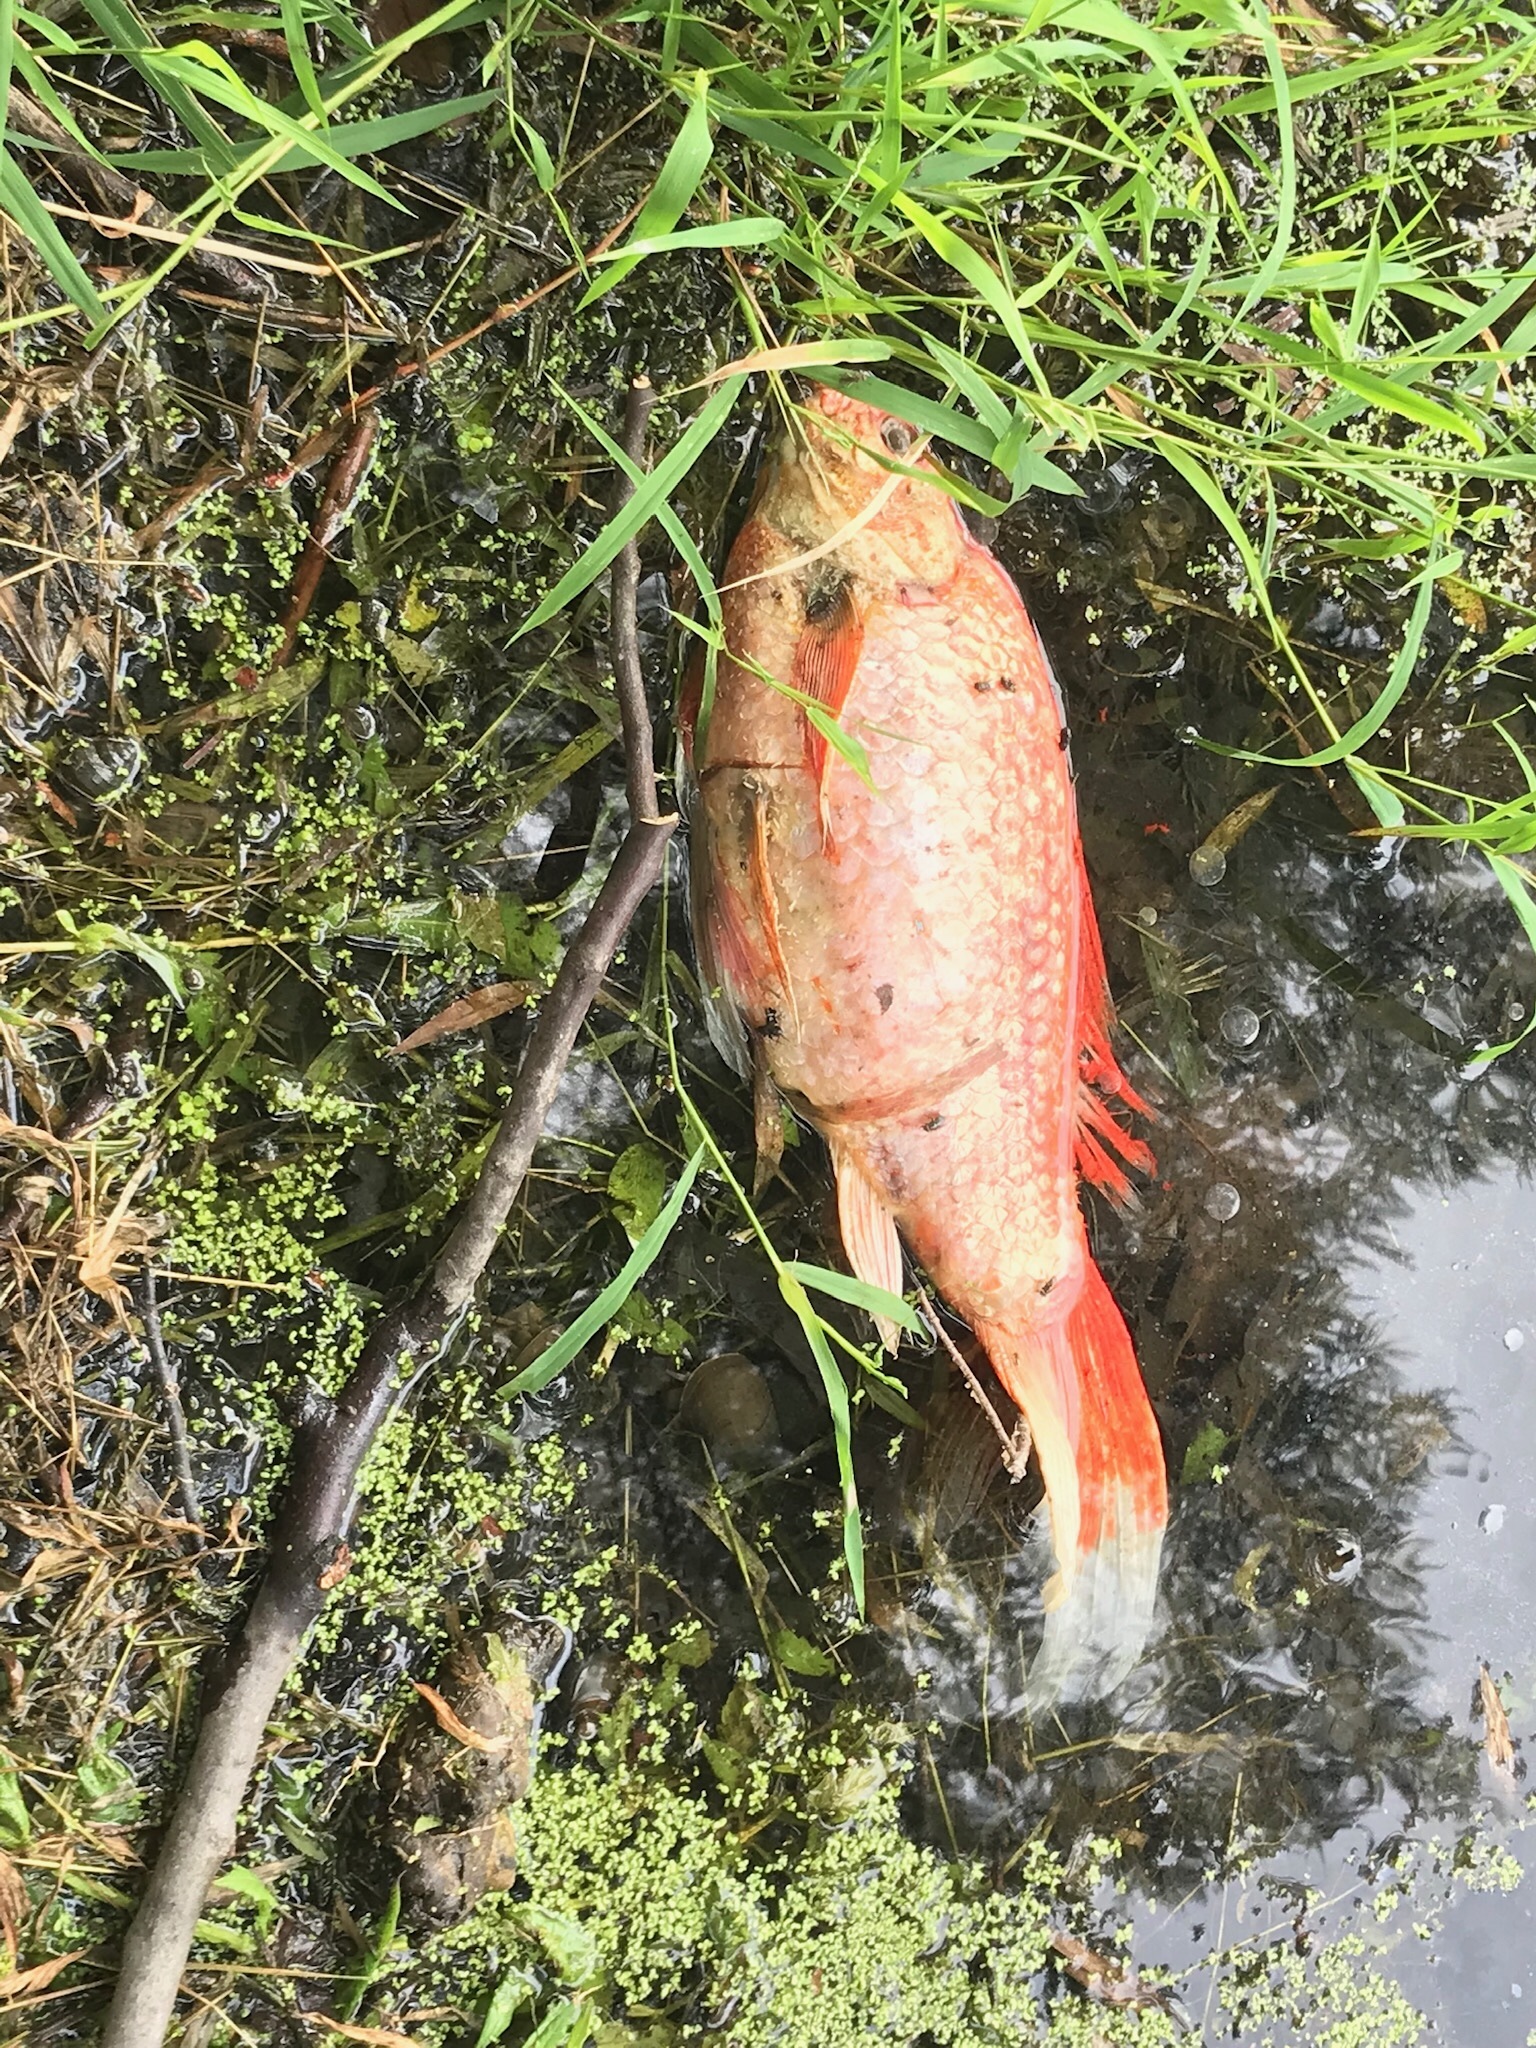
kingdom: Animalia
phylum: Chordata
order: Cypriniformes
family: Cyprinidae
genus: Cyprinus
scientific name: Cyprinus rubrofuscus
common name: Koi
